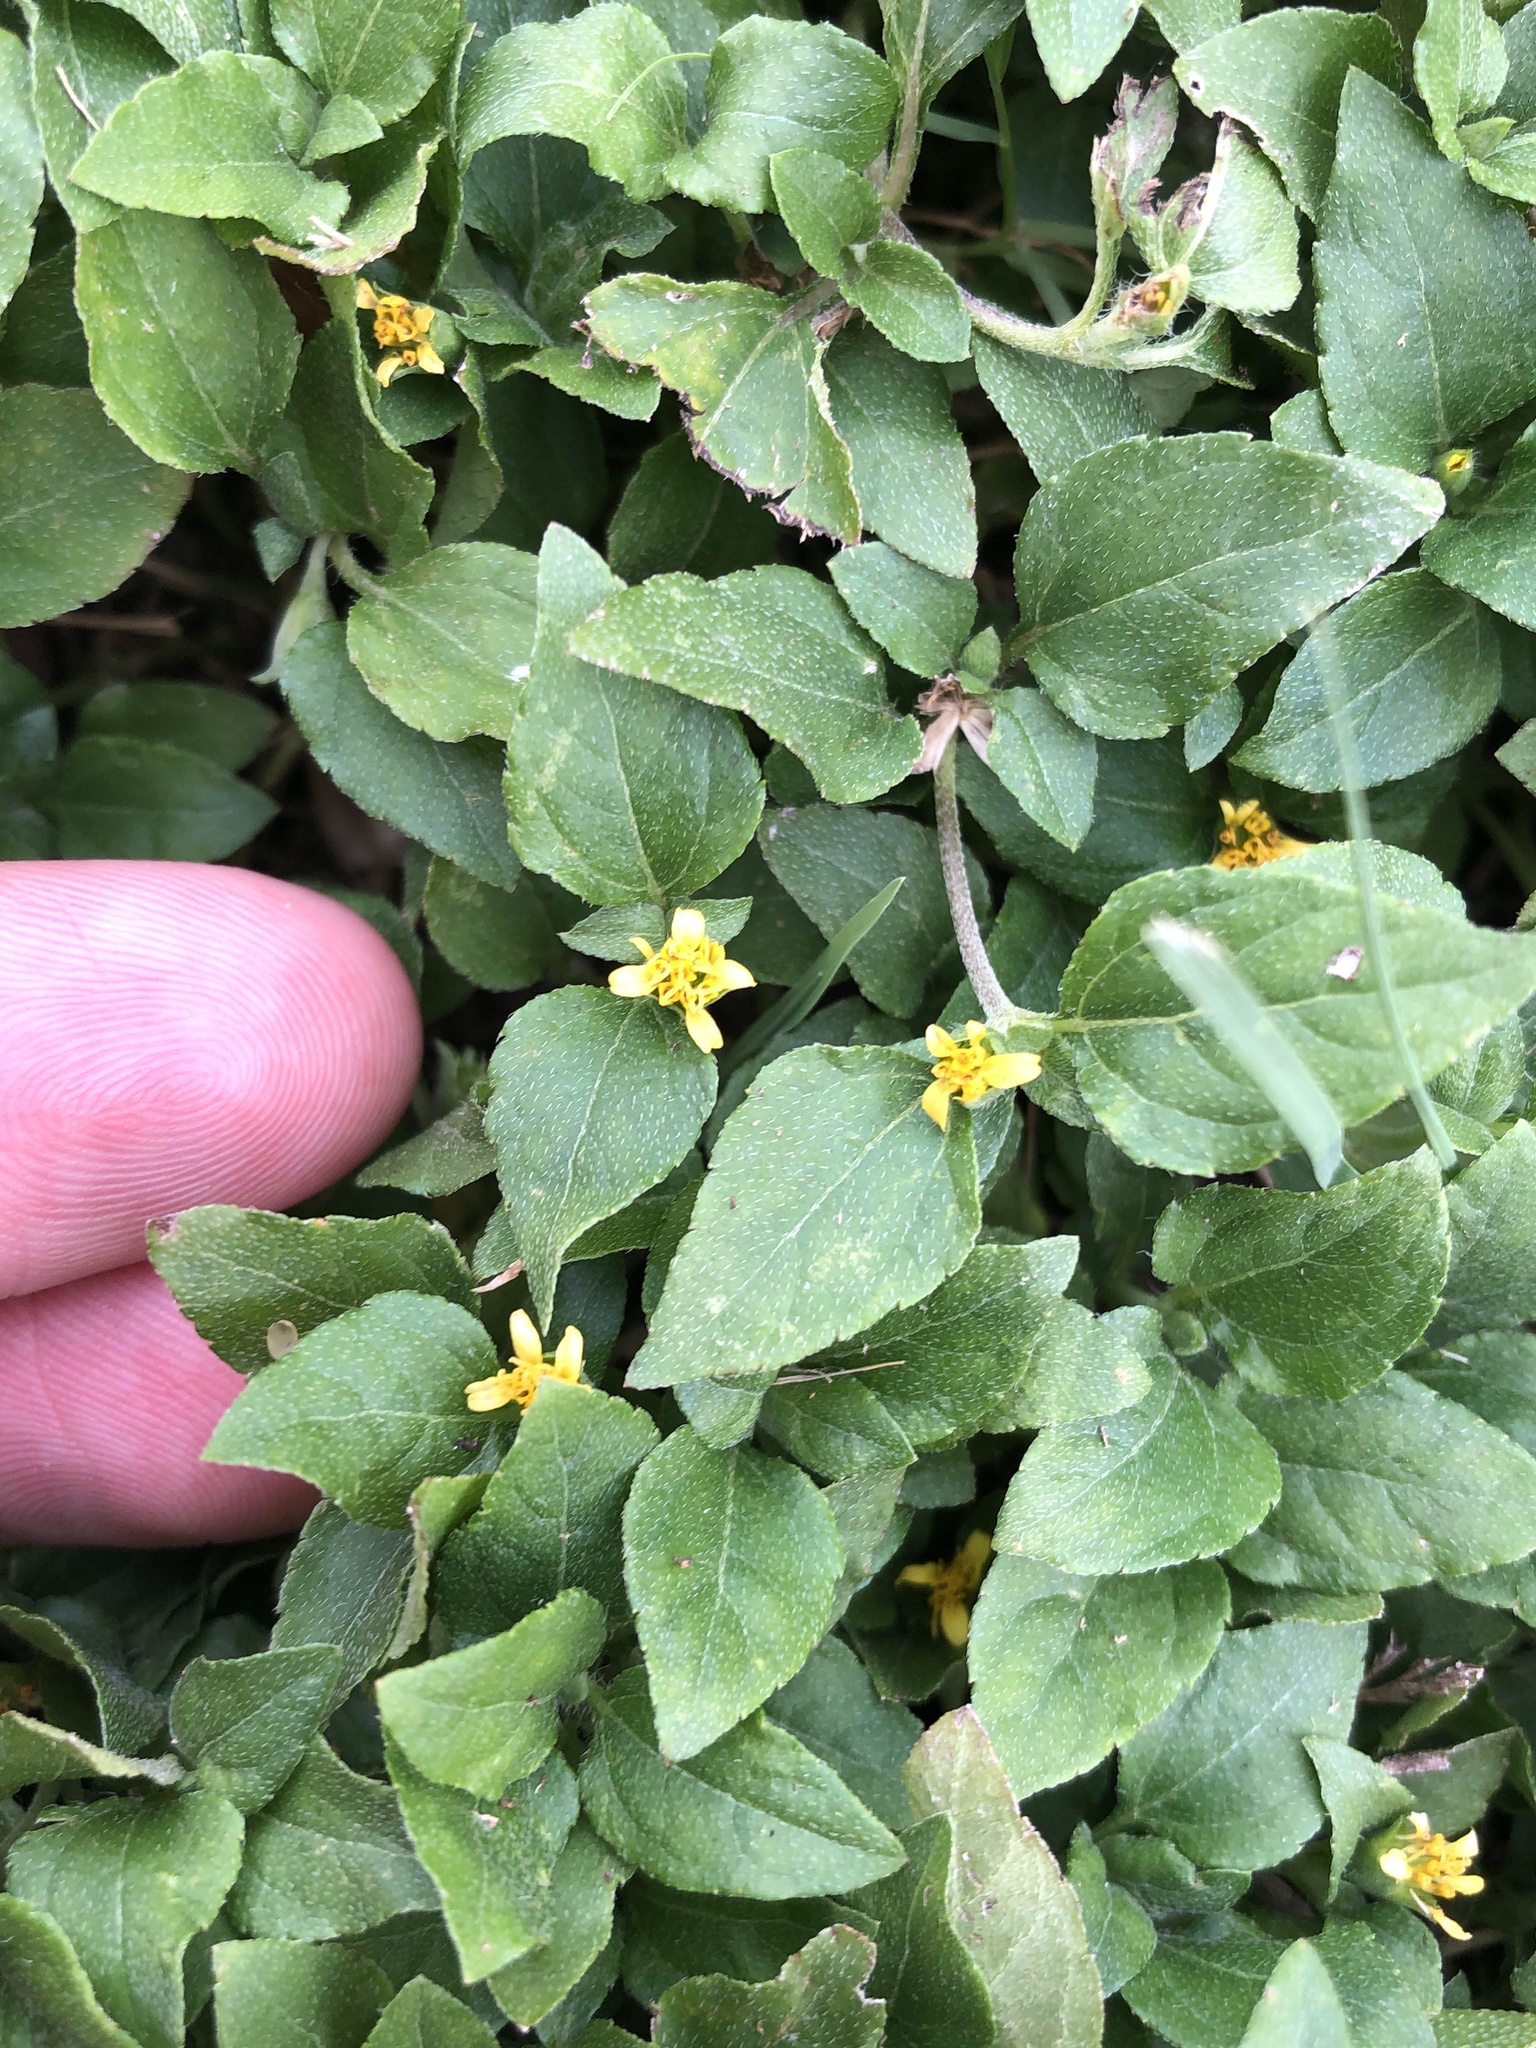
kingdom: Plantae
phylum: Tracheophyta
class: Magnoliopsida
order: Asterales
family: Asteraceae
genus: Calyptocarpus
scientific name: Calyptocarpus vialis
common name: Straggler daisy
